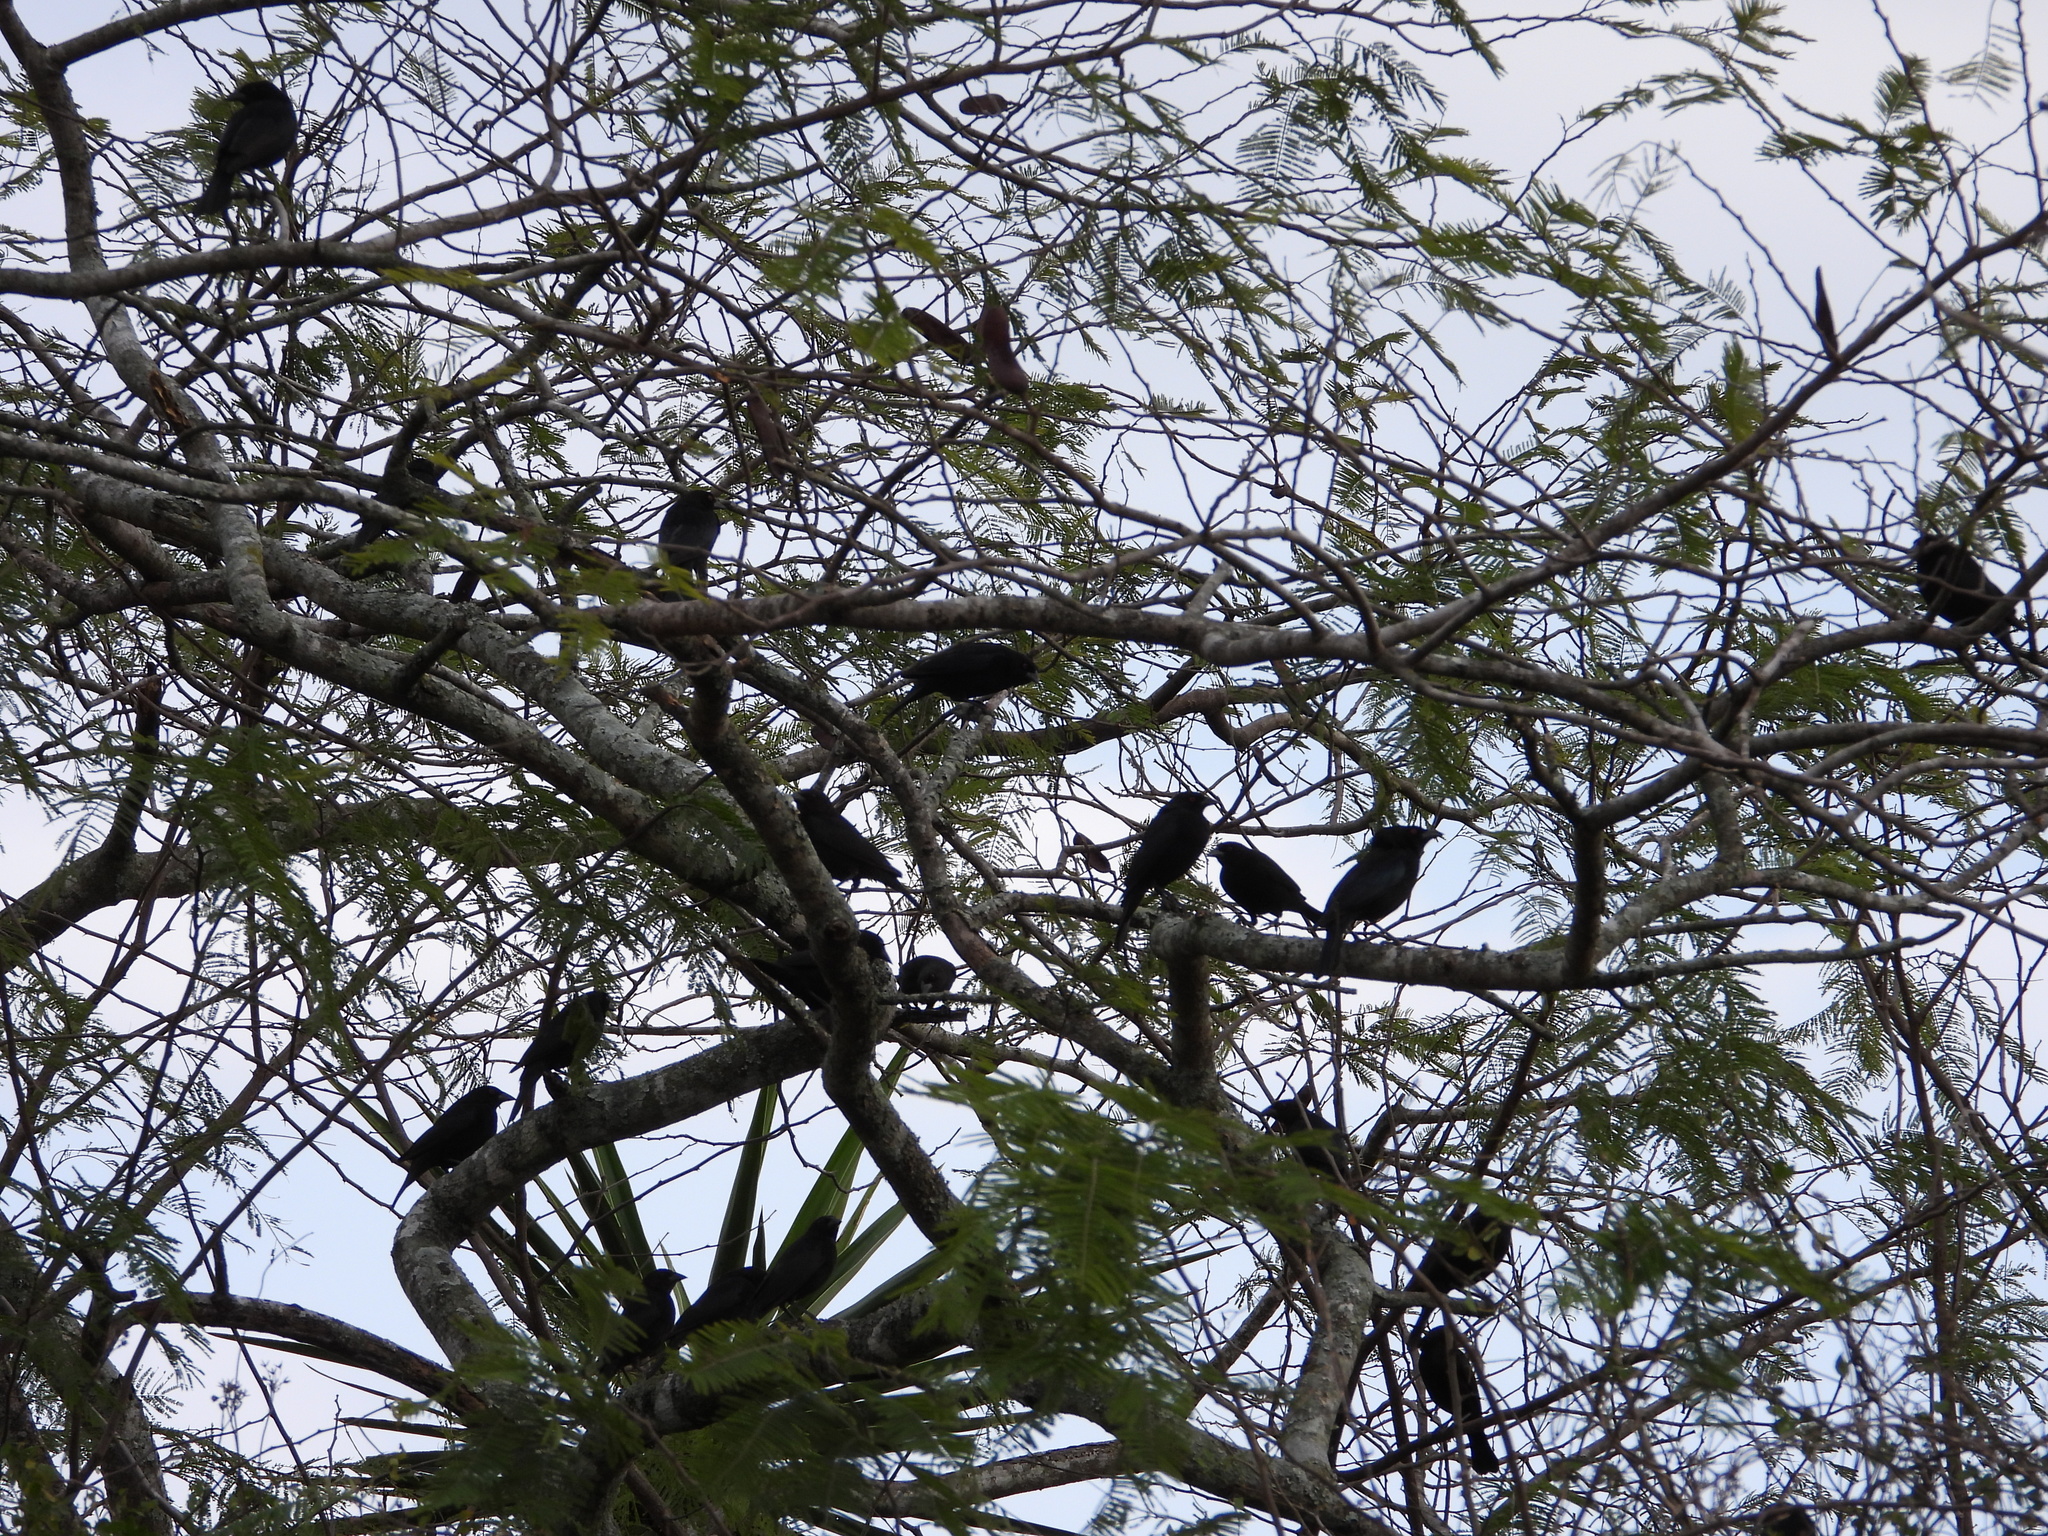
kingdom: Animalia
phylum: Chordata
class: Aves
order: Passeriformes
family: Icteridae
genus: Molothrus
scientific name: Molothrus aeneus
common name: Bronzed cowbird
